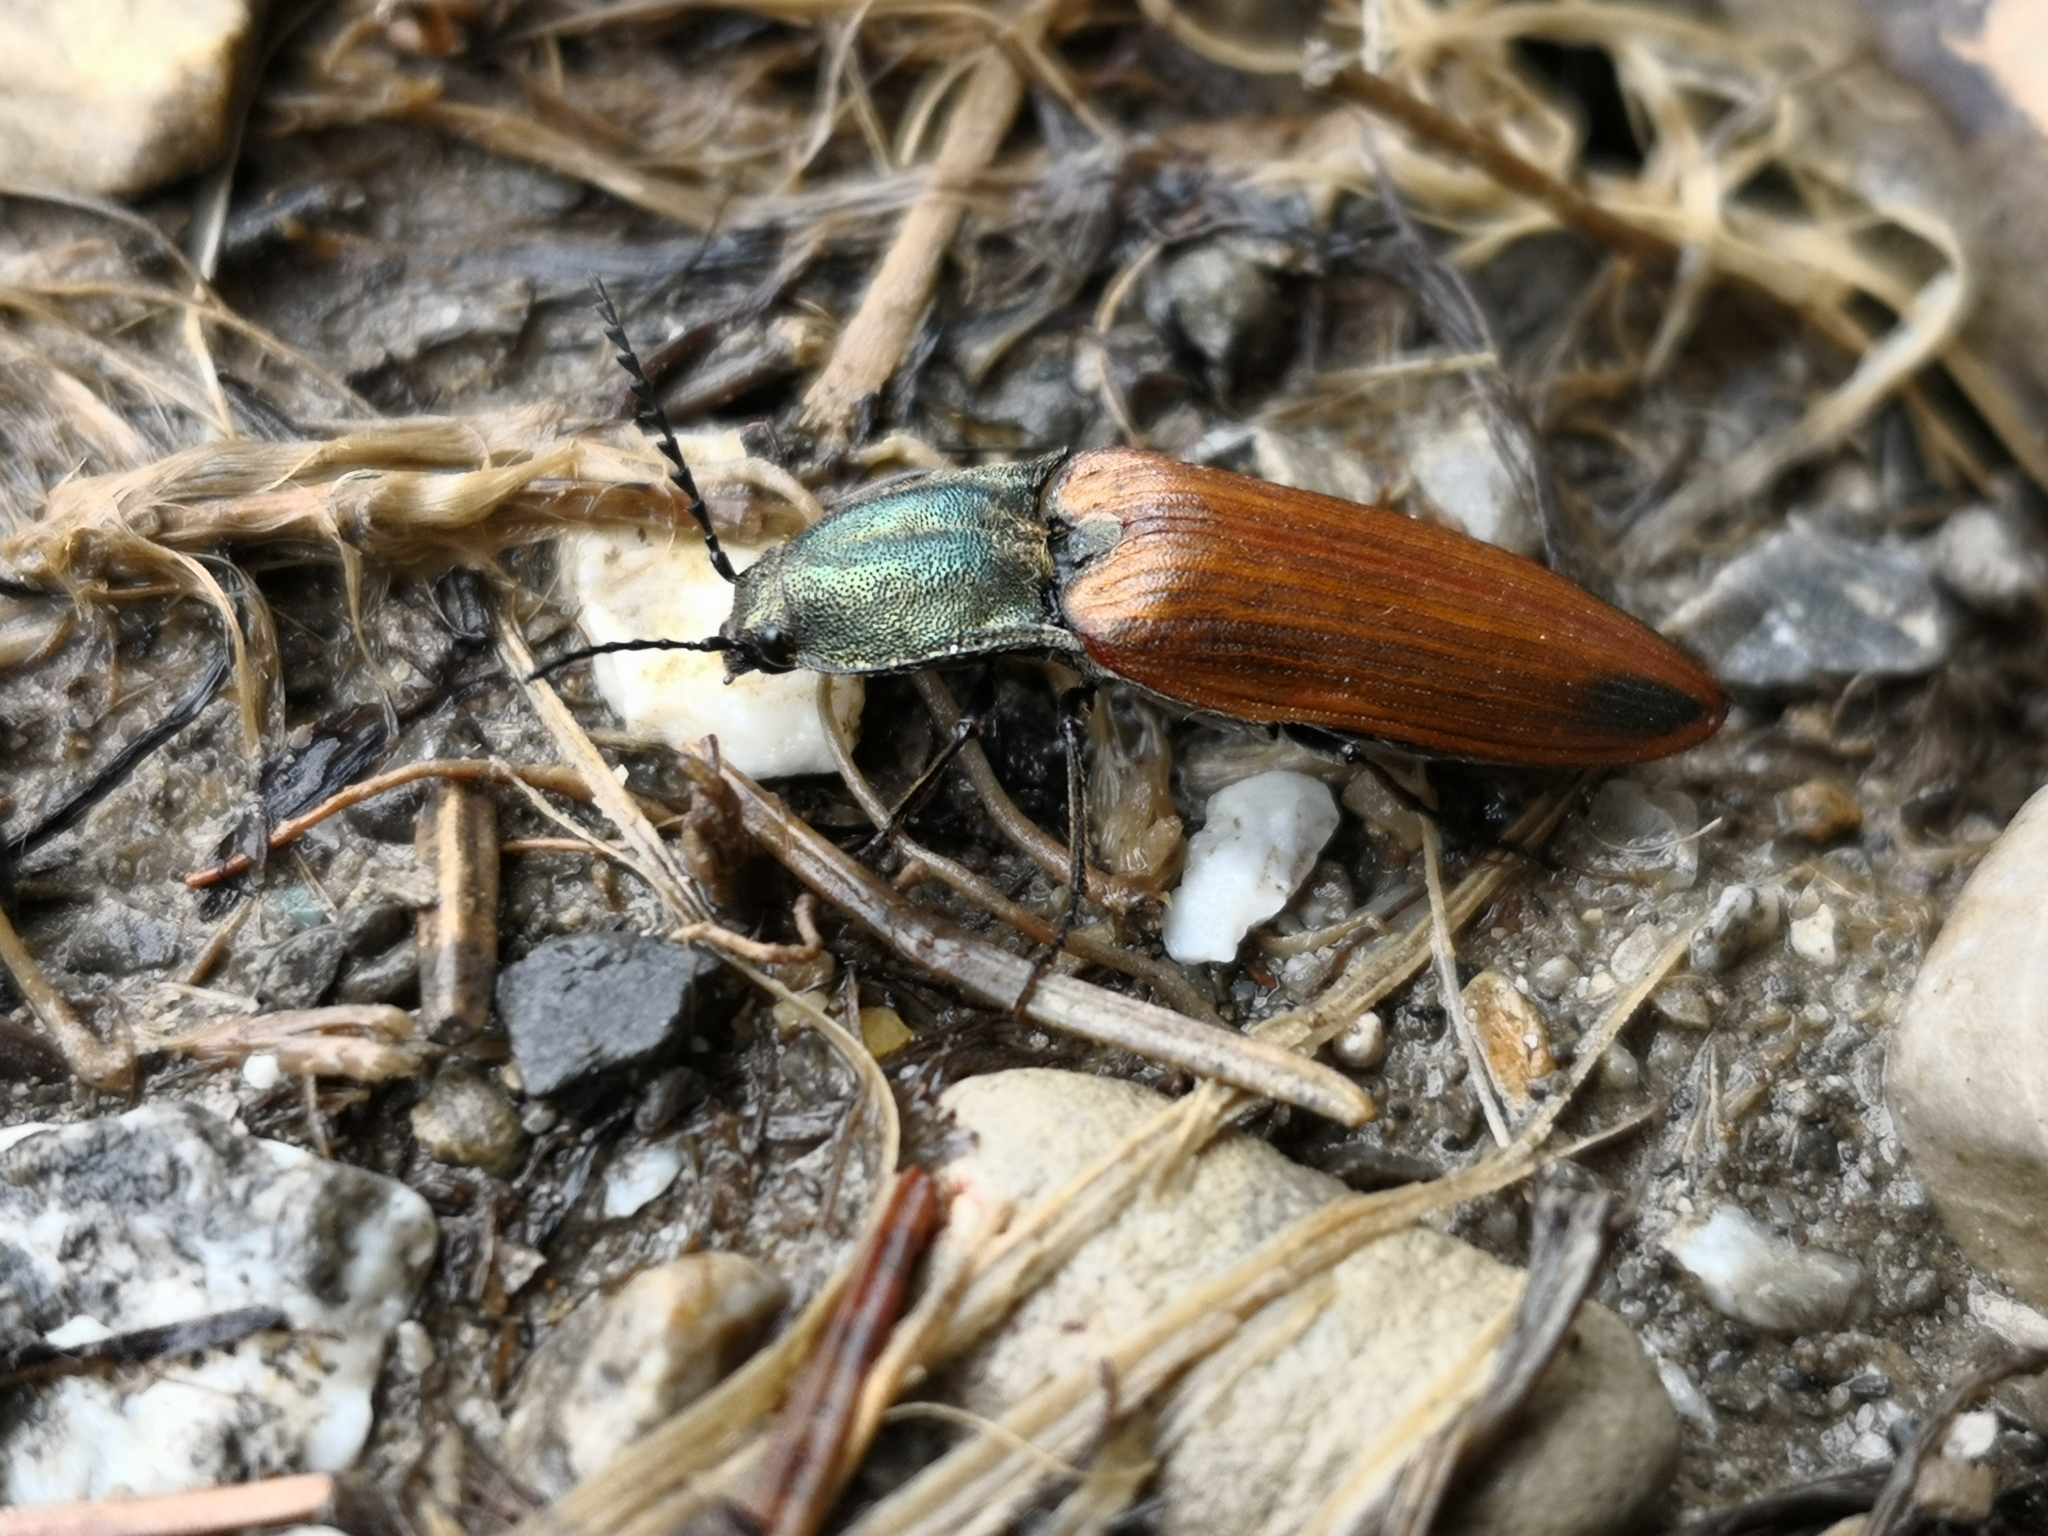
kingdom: Animalia
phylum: Arthropoda
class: Insecta
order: Coleoptera
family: Elateridae
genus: Ctenicera
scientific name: Ctenicera virens
